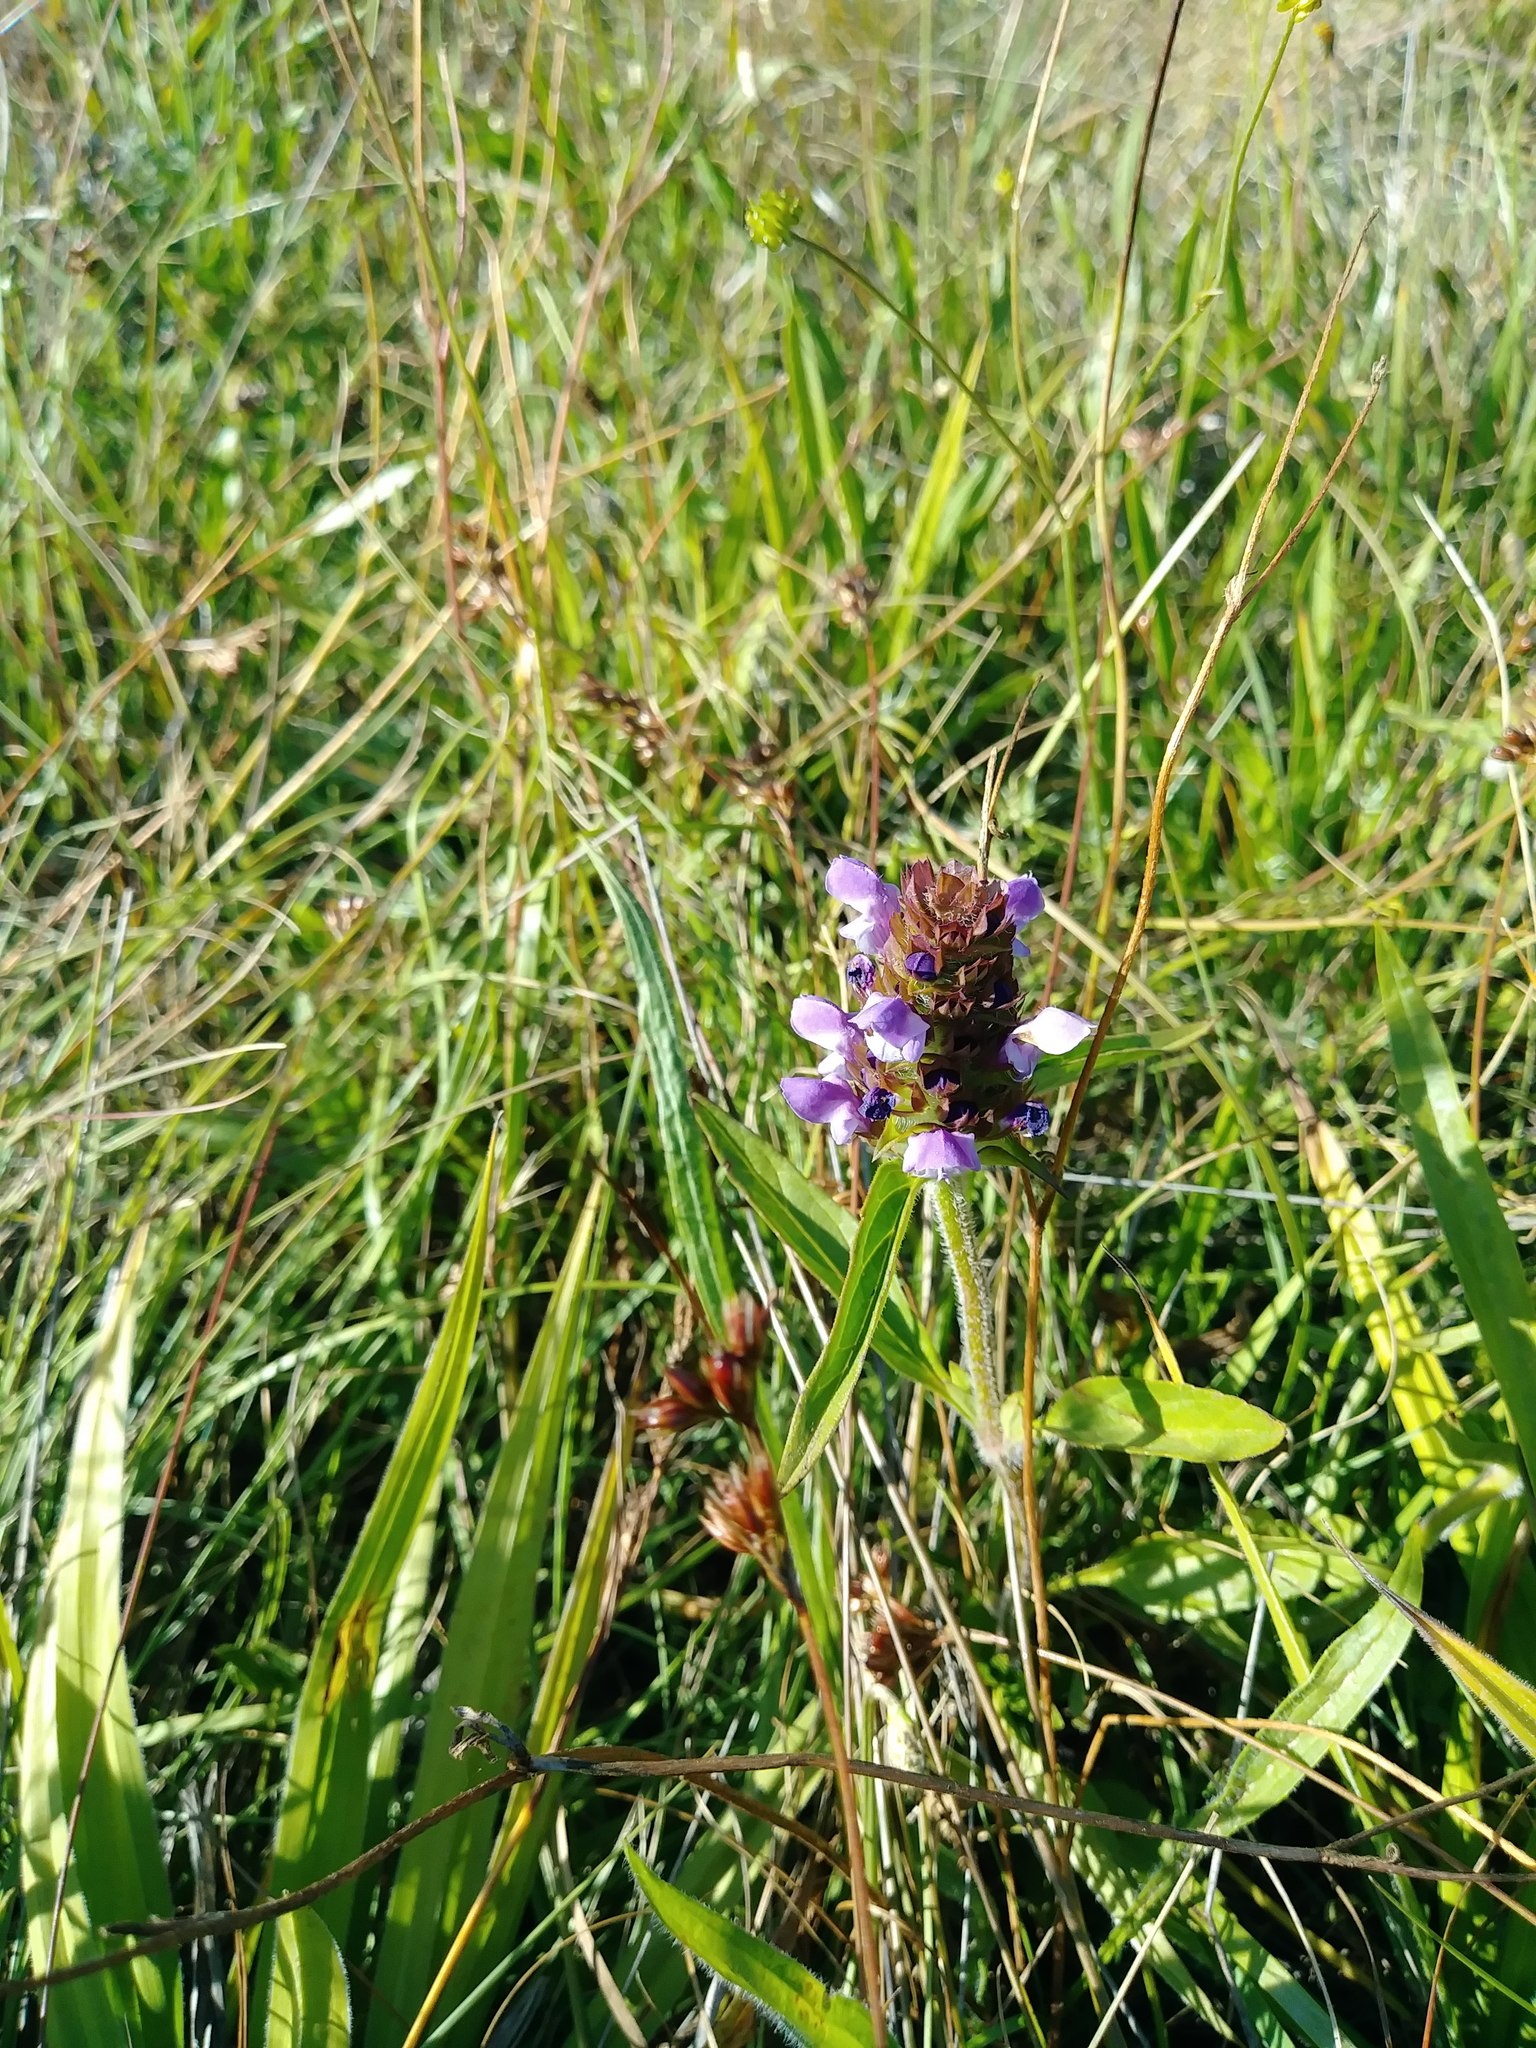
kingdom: Plantae
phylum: Tracheophyta
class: Magnoliopsida
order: Lamiales
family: Lamiaceae
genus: Prunella
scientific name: Prunella vulgaris
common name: Heal-all
